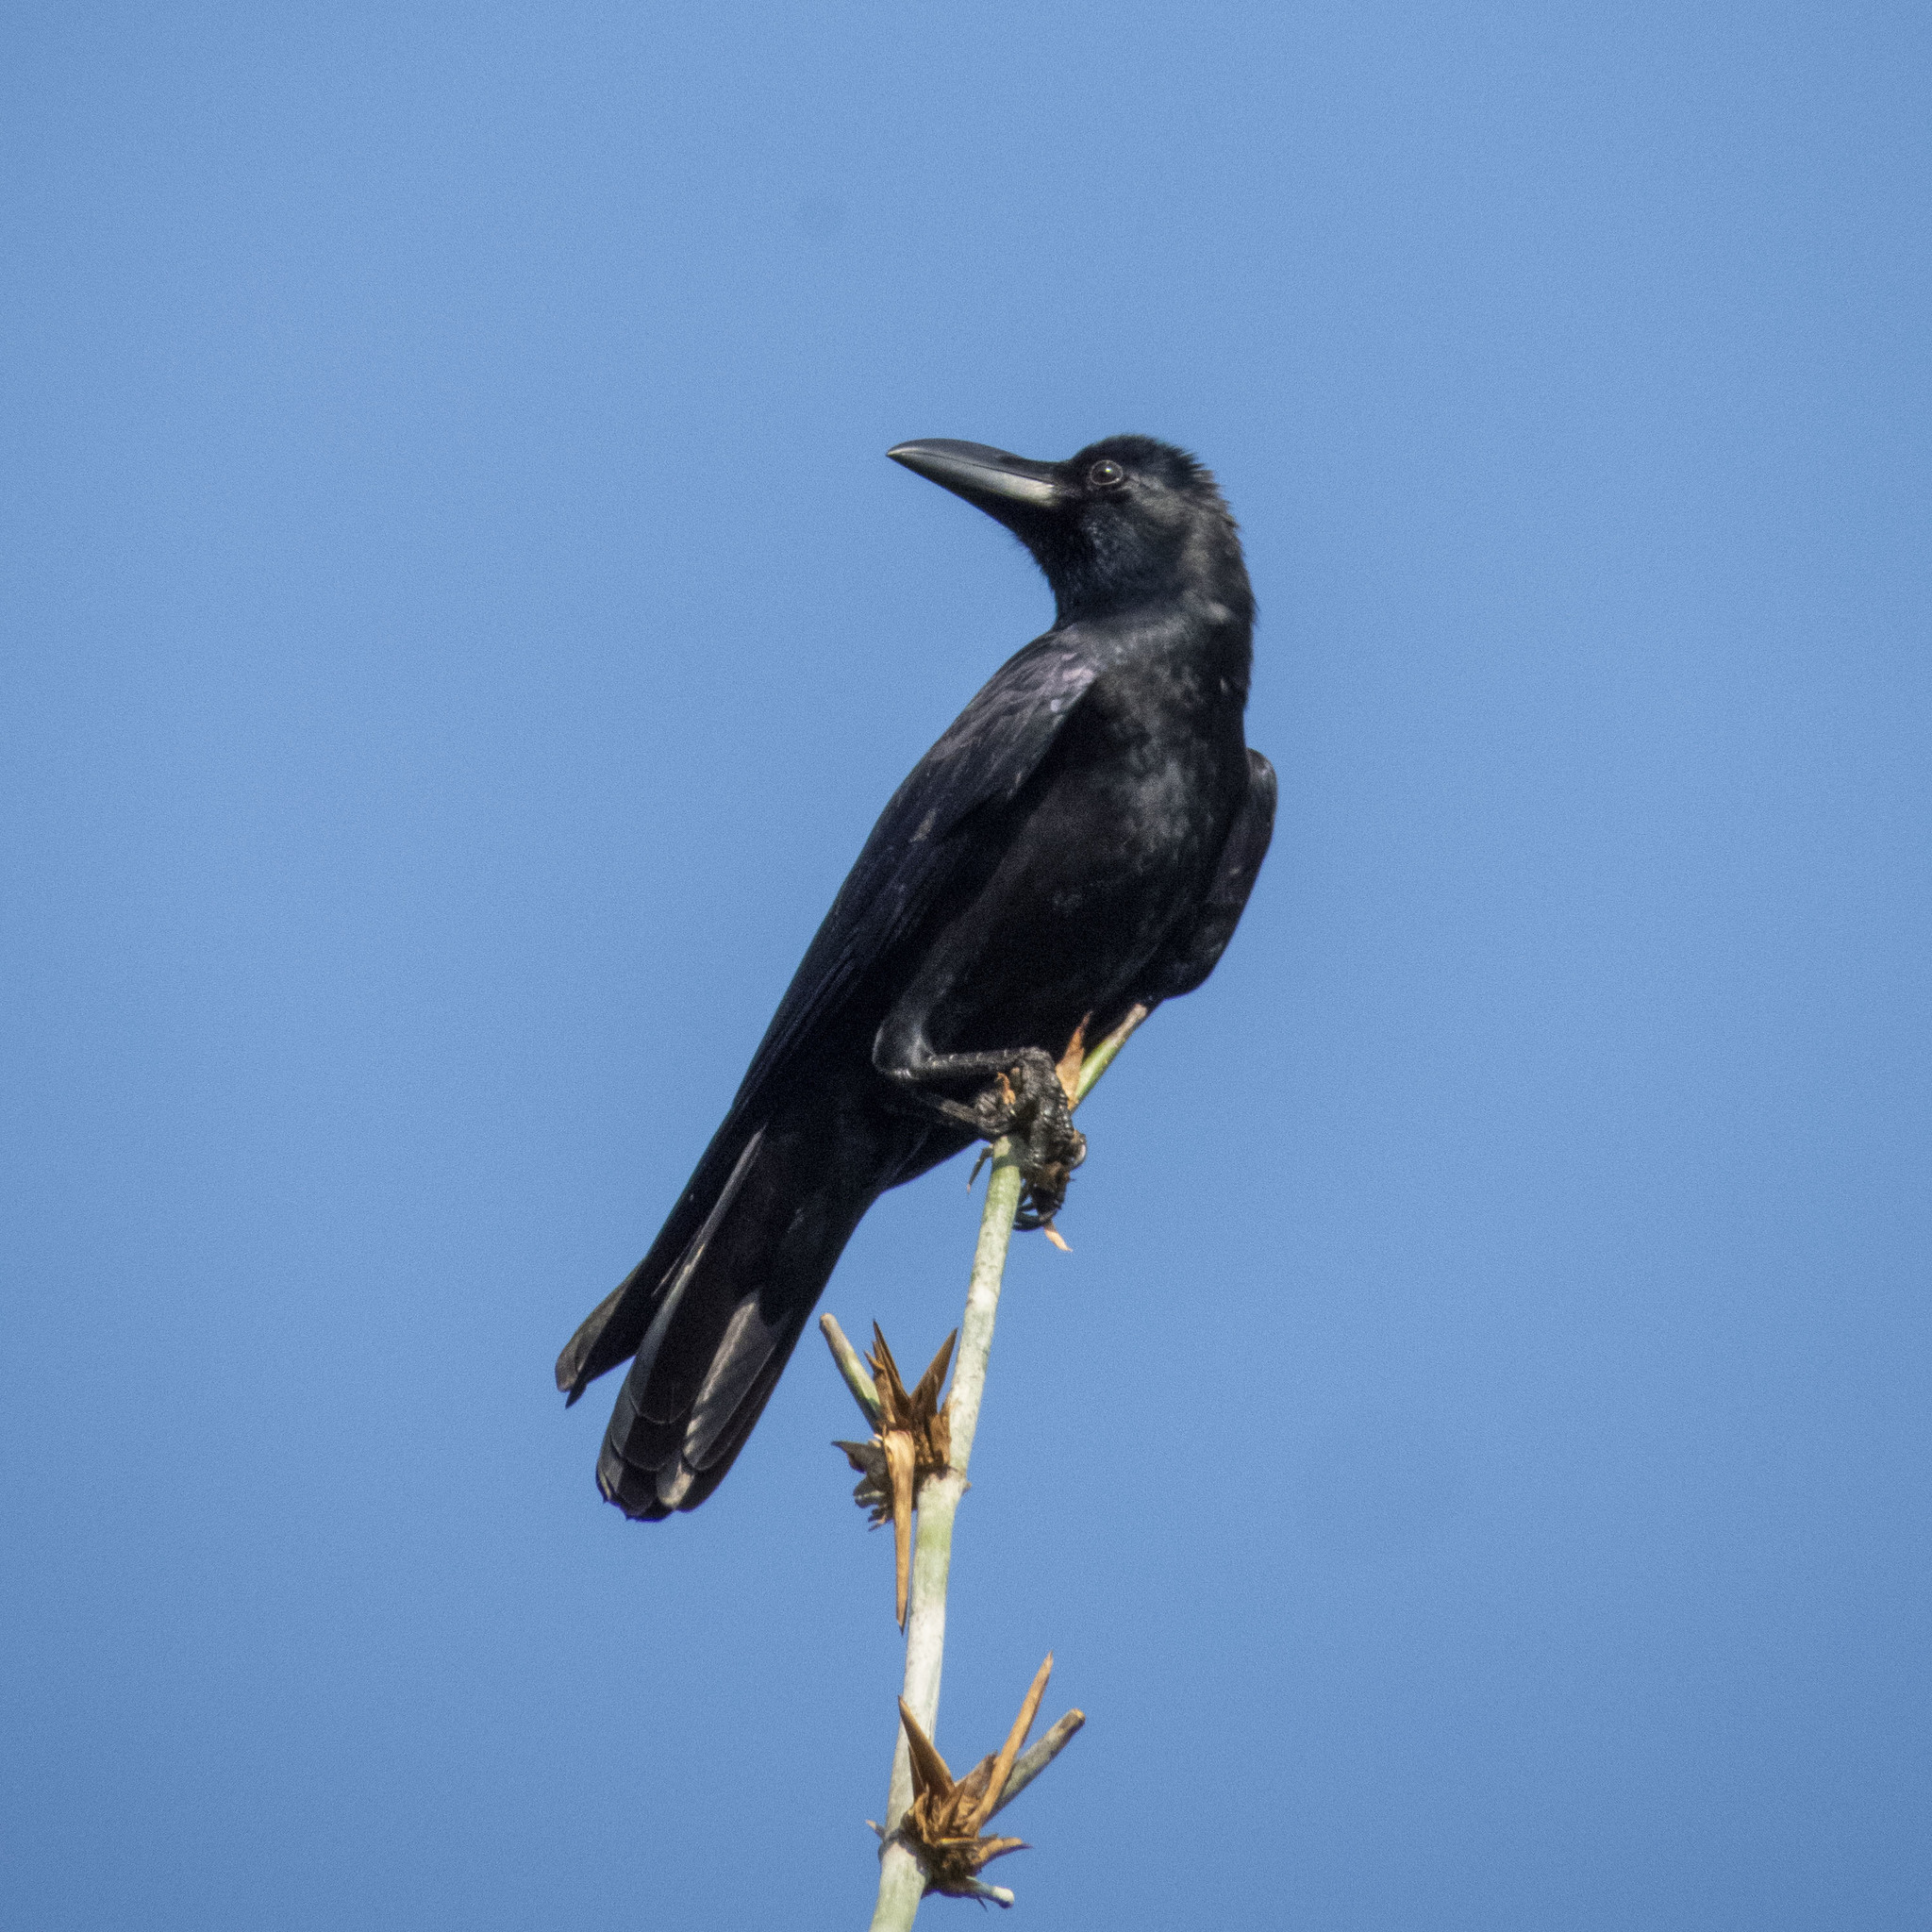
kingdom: Animalia
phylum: Chordata
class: Aves
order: Passeriformes
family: Corvidae
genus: Corvus
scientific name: Corvus macrorhynchos
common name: Large-billed crow
